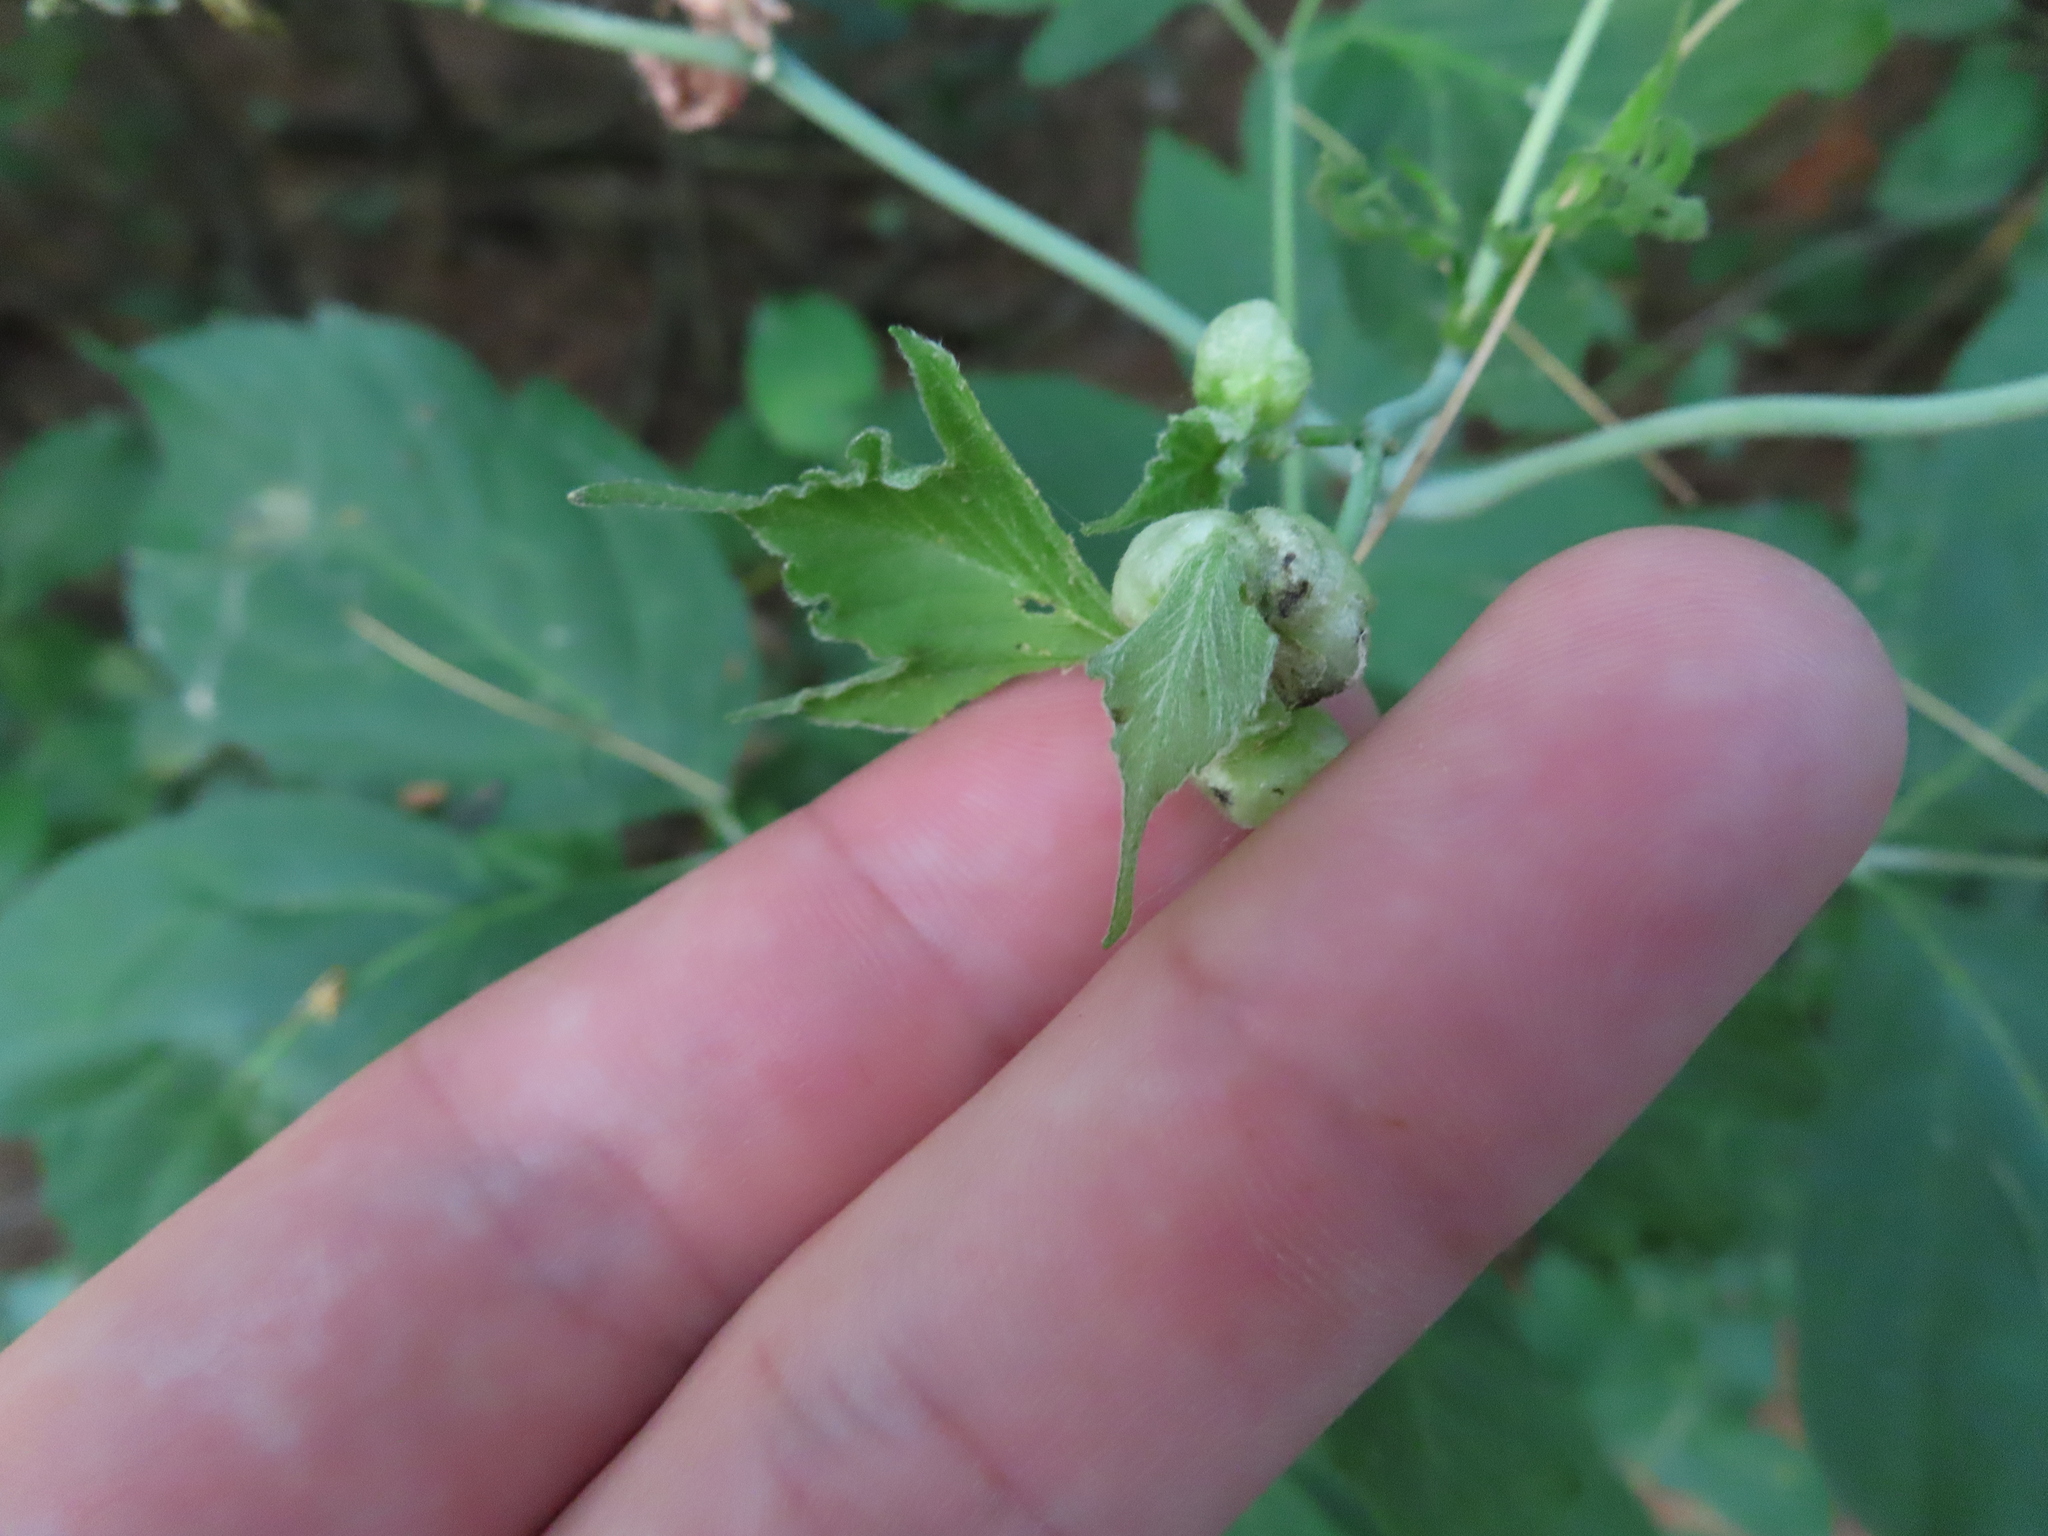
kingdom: Animalia
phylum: Arthropoda
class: Insecta
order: Diptera
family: Cecidomyiidae
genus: Contarinia
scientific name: Contarinia negundinis
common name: Boxelder budgall midge
